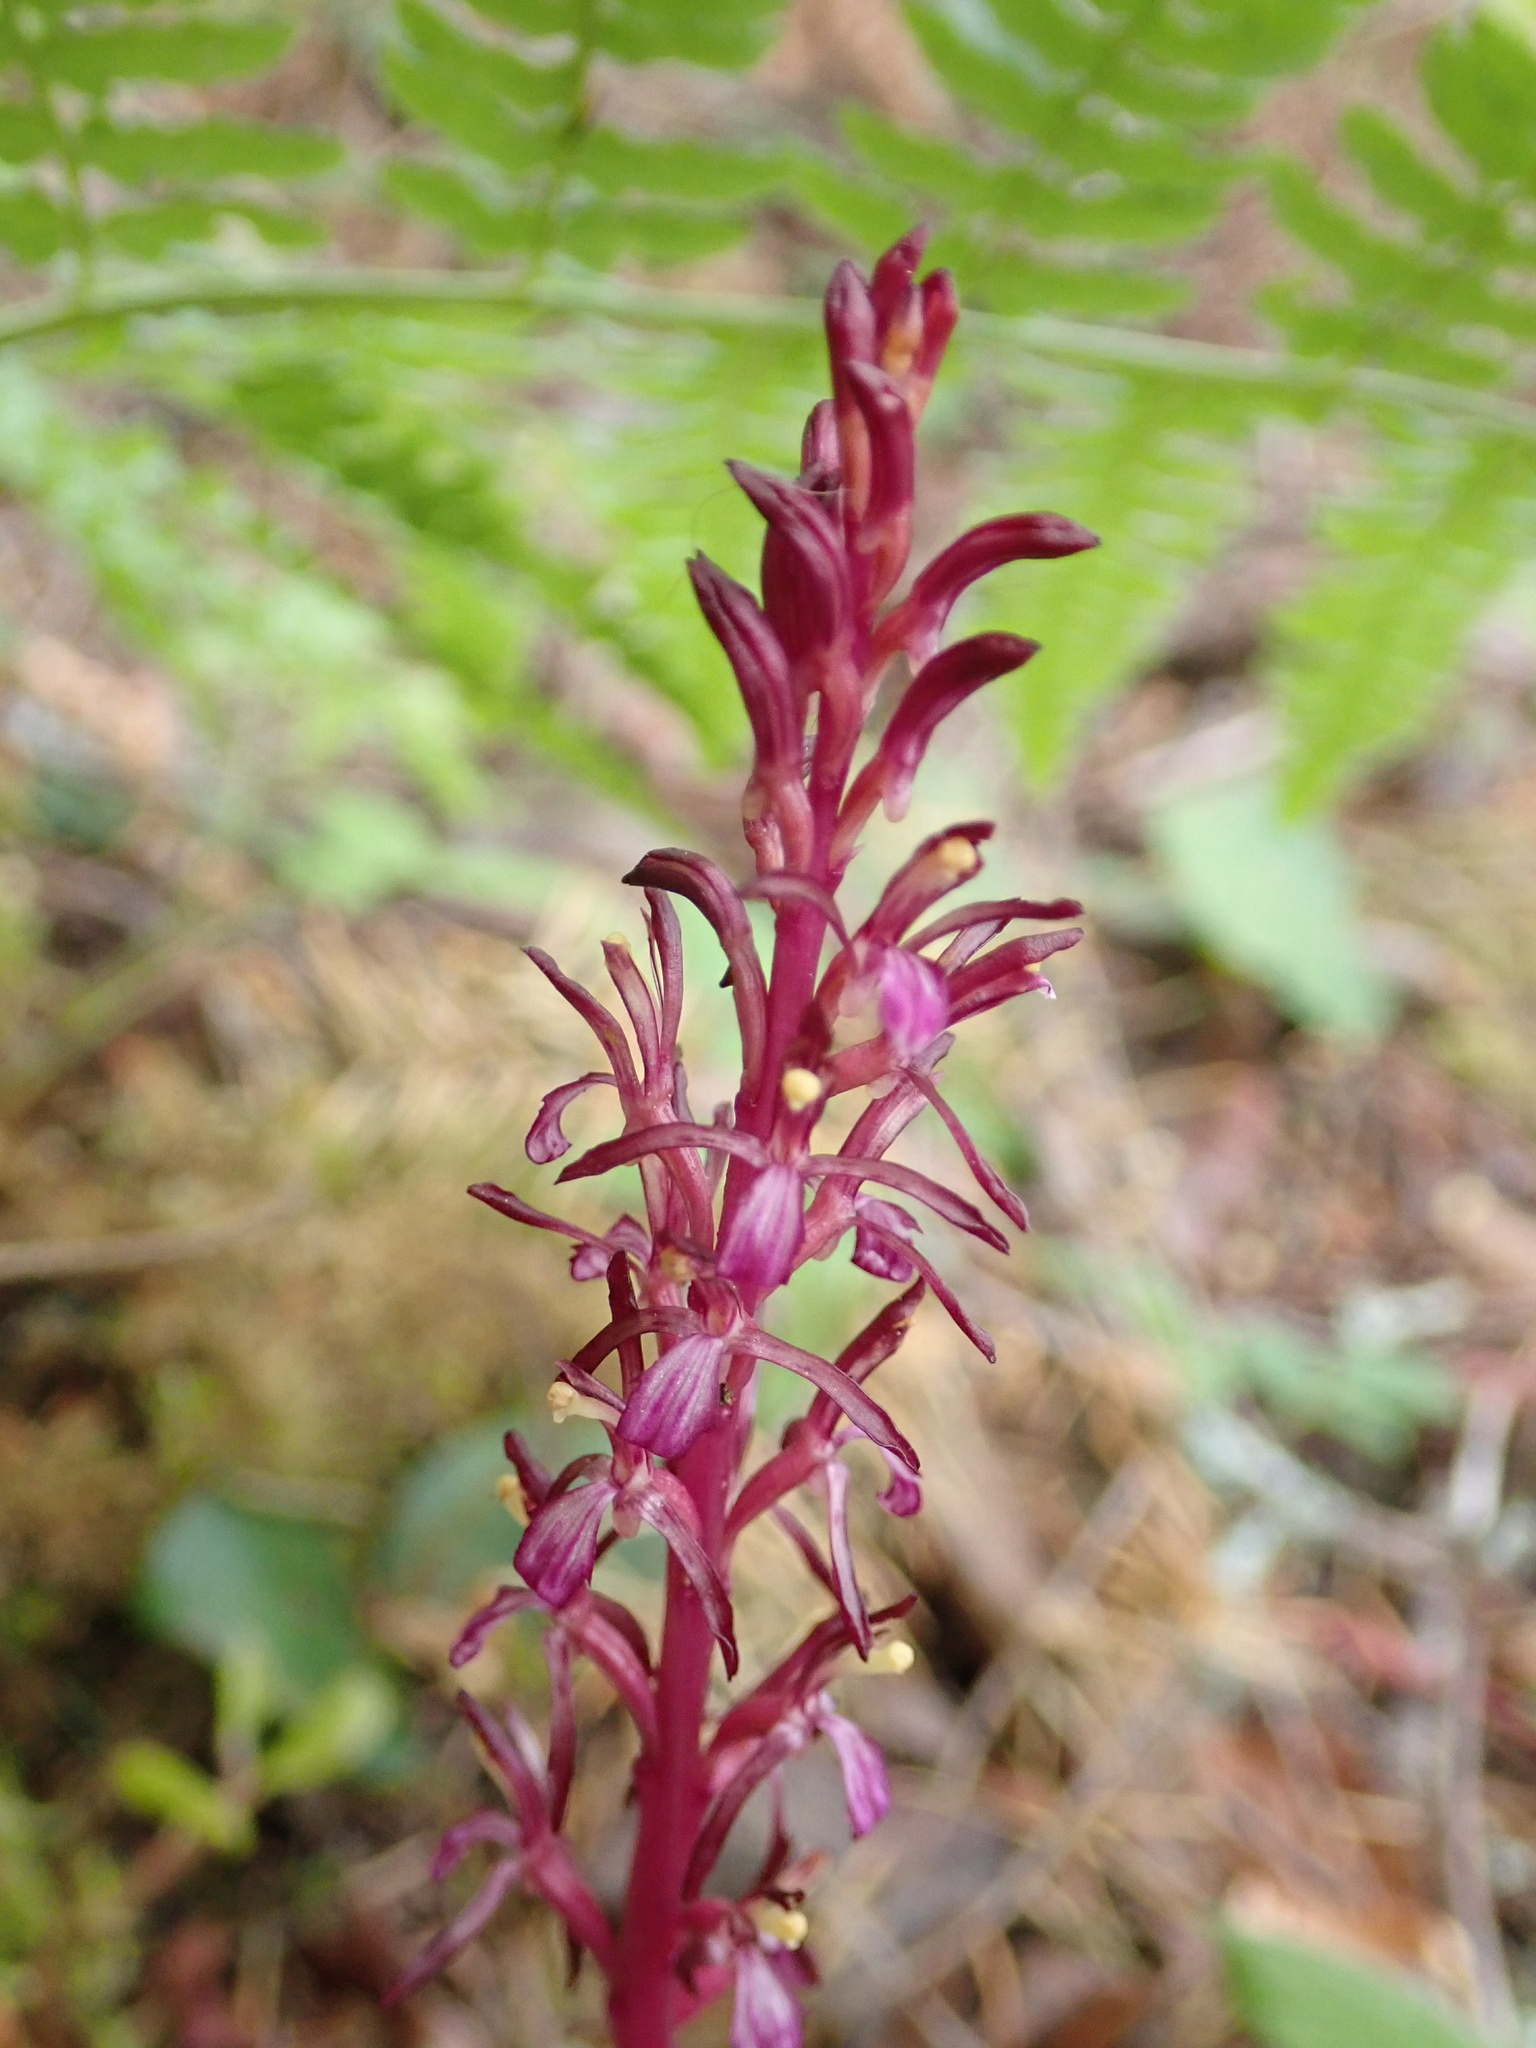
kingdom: Plantae
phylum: Tracheophyta
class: Liliopsida
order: Asparagales
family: Orchidaceae
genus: Corallorhiza
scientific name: Corallorhiza mertensiana
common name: Pacific coralroot
